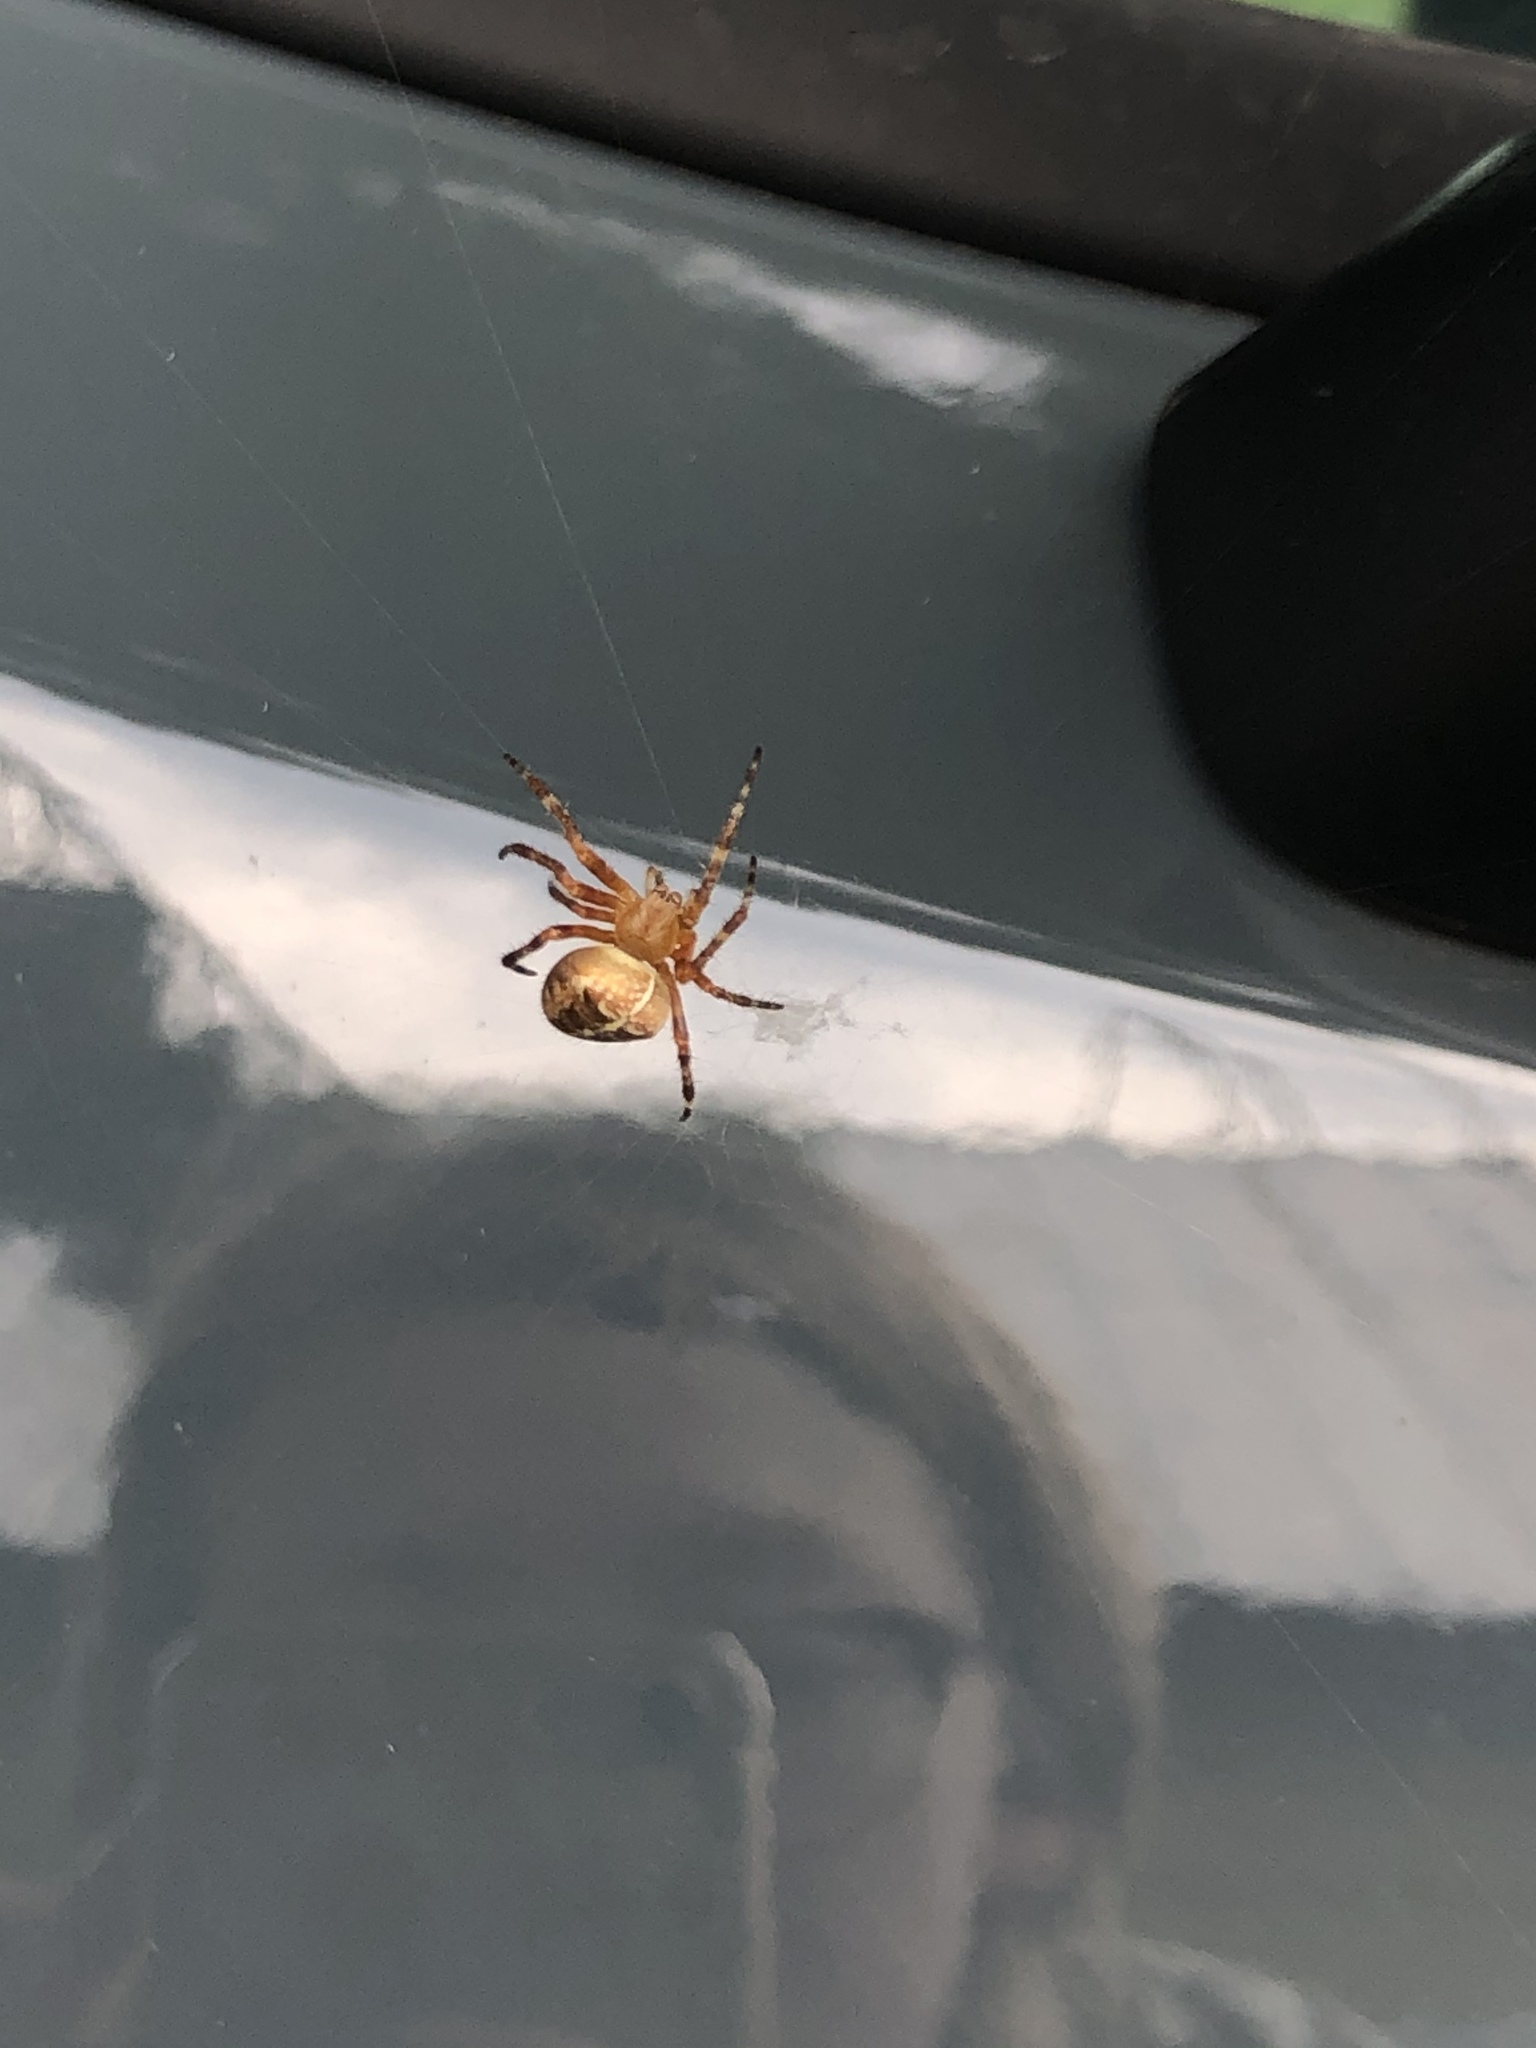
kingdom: Animalia
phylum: Arthropoda
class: Arachnida
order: Araneae
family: Araneidae
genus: Araneus
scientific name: Araneus diadematus
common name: Cross orbweaver
